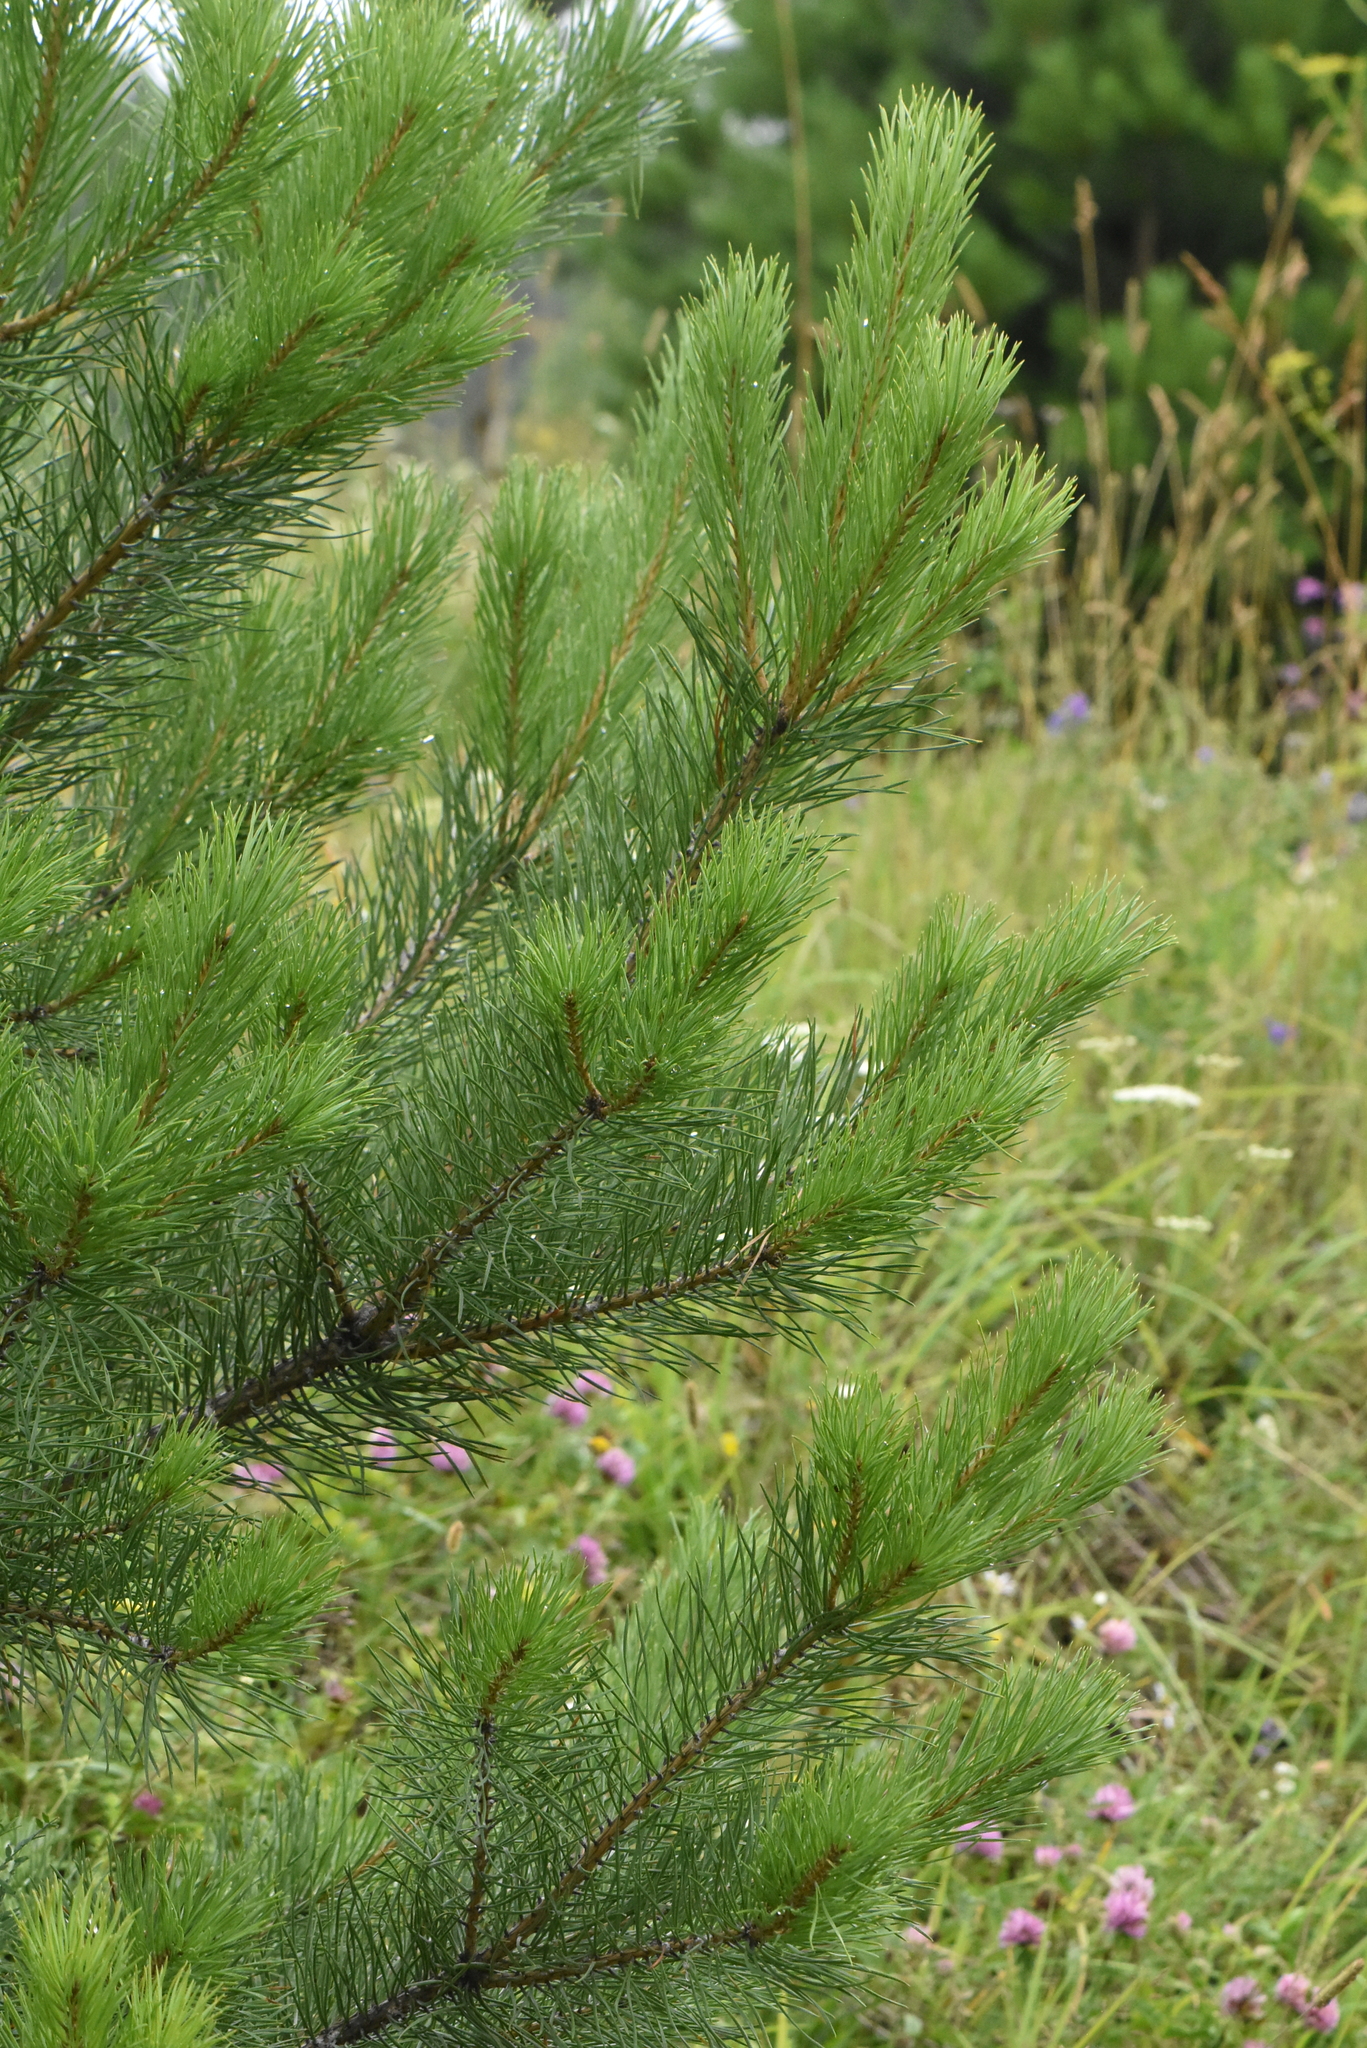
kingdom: Plantae
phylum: Tracheophyta
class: Pinopsida
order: Pinales
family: Pinaceae
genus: Pinus
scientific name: Pinus sylvestris
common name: Scots pine
